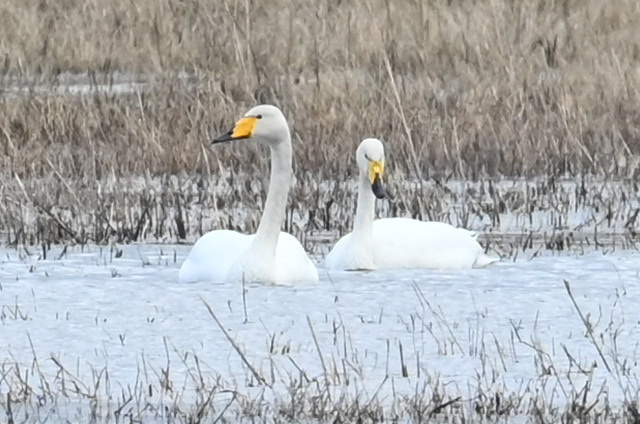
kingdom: Animalia
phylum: Chordata
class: Aves
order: Anseriformes
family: Anatidae
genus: Cygnus
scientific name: Cygnus cygnus
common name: Whooper swan
